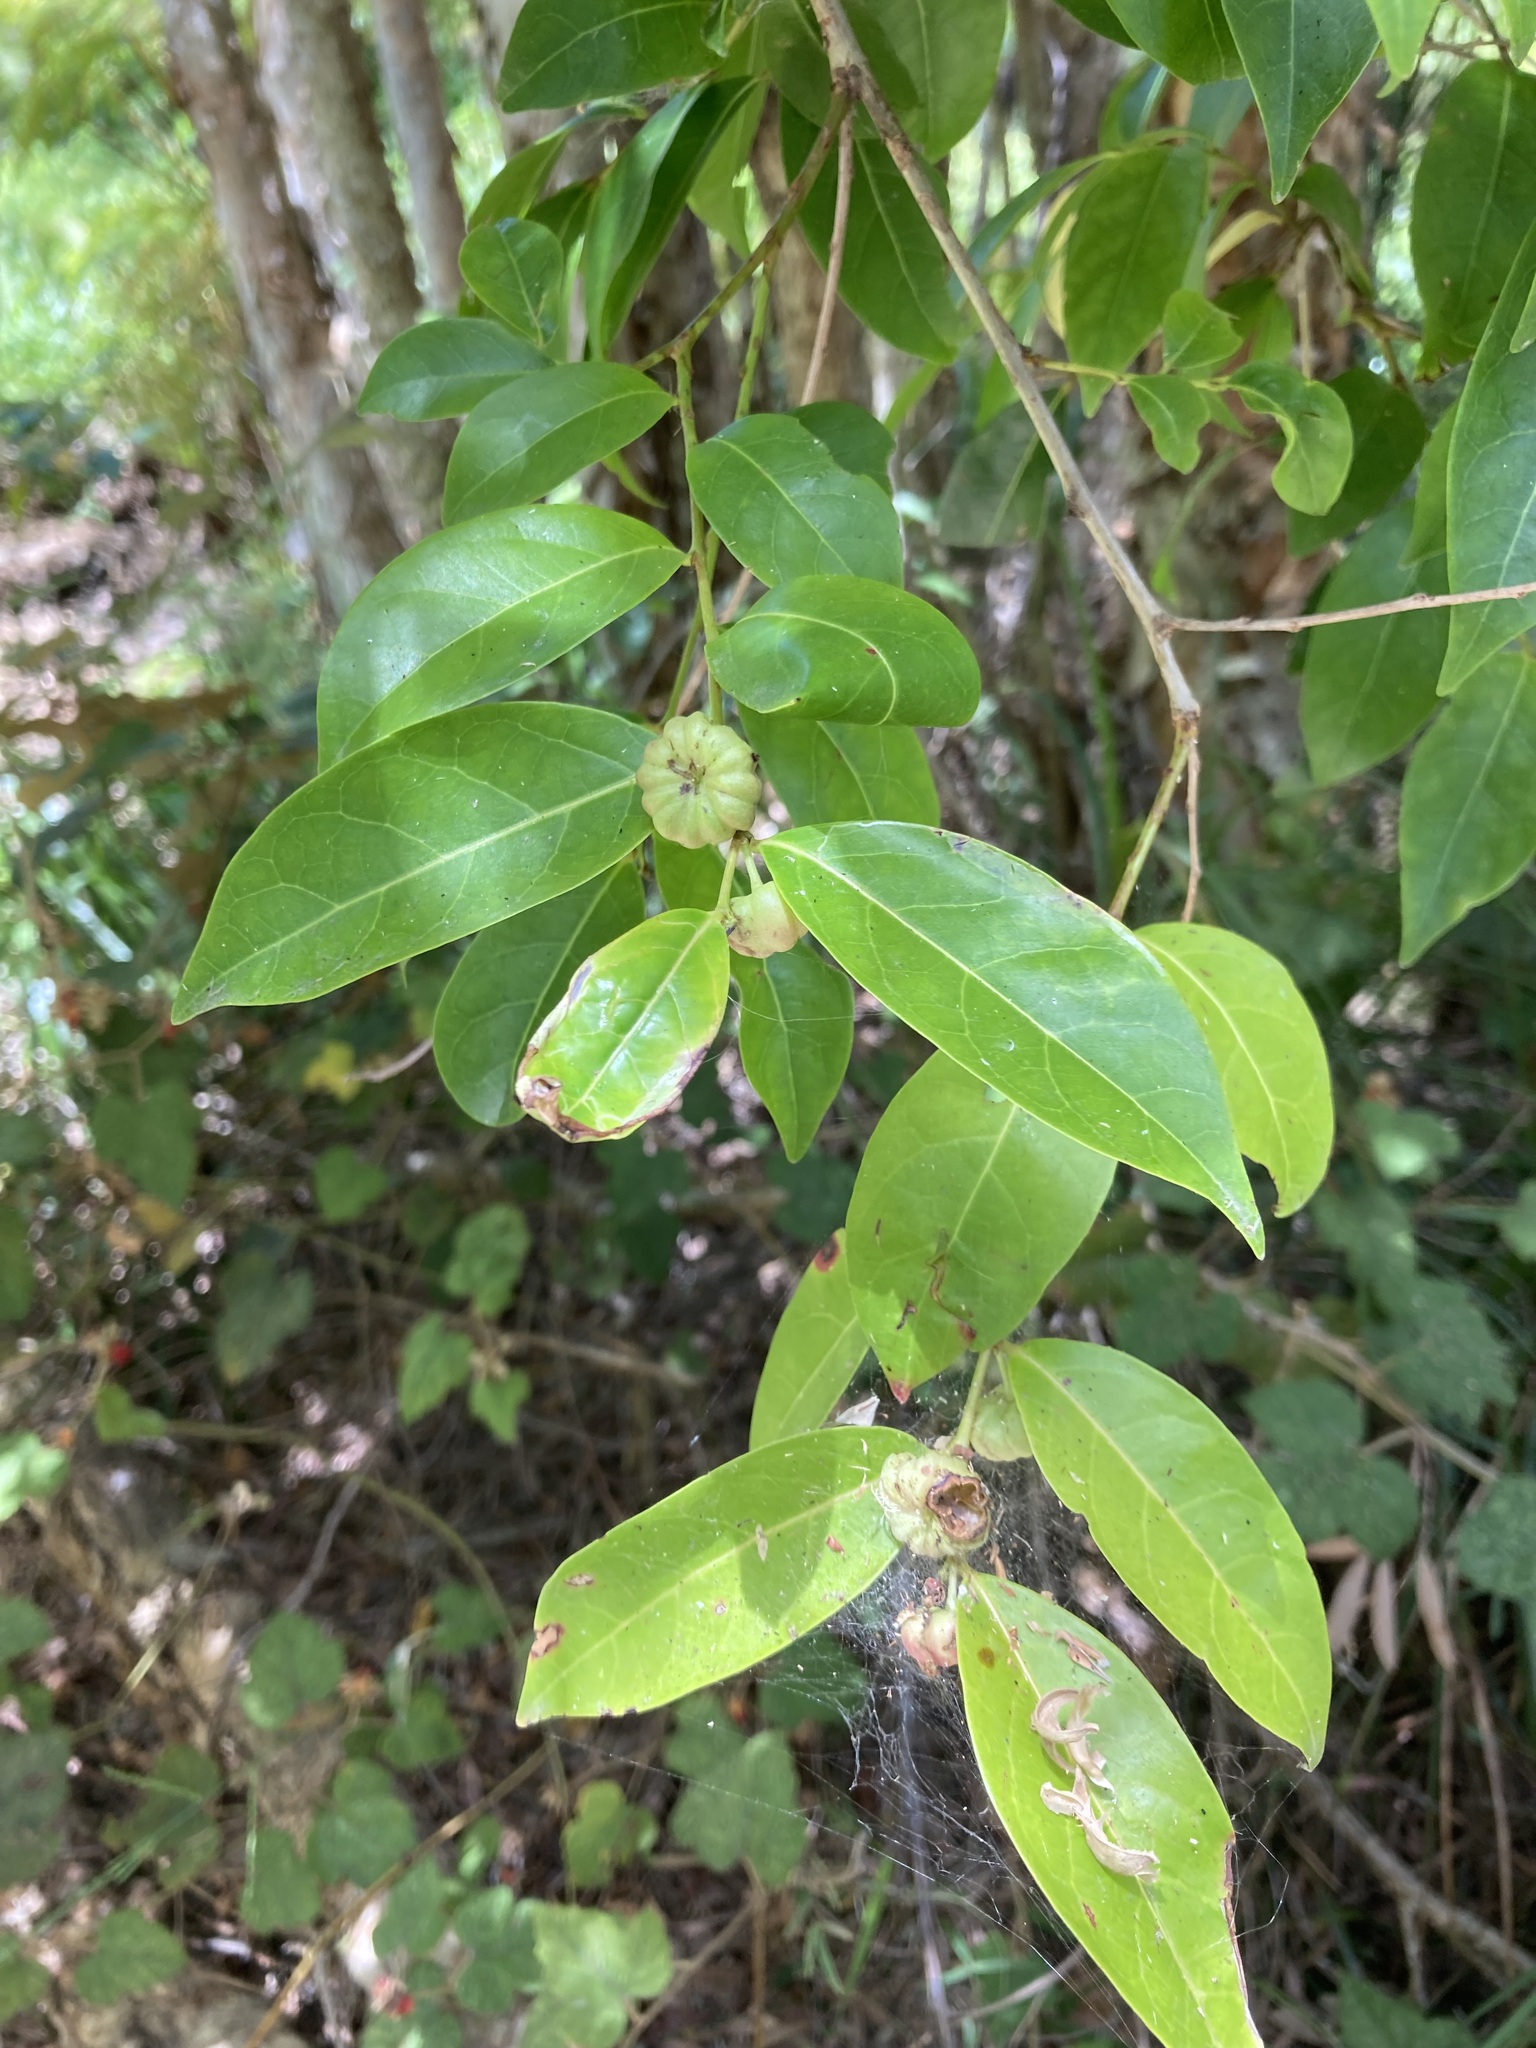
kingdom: Plantae
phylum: Tracheophyta
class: Magnoliopsida
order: Malpighiales
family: Phyllanthaceae
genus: Glochidion
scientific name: Glochidion ferdinandi
